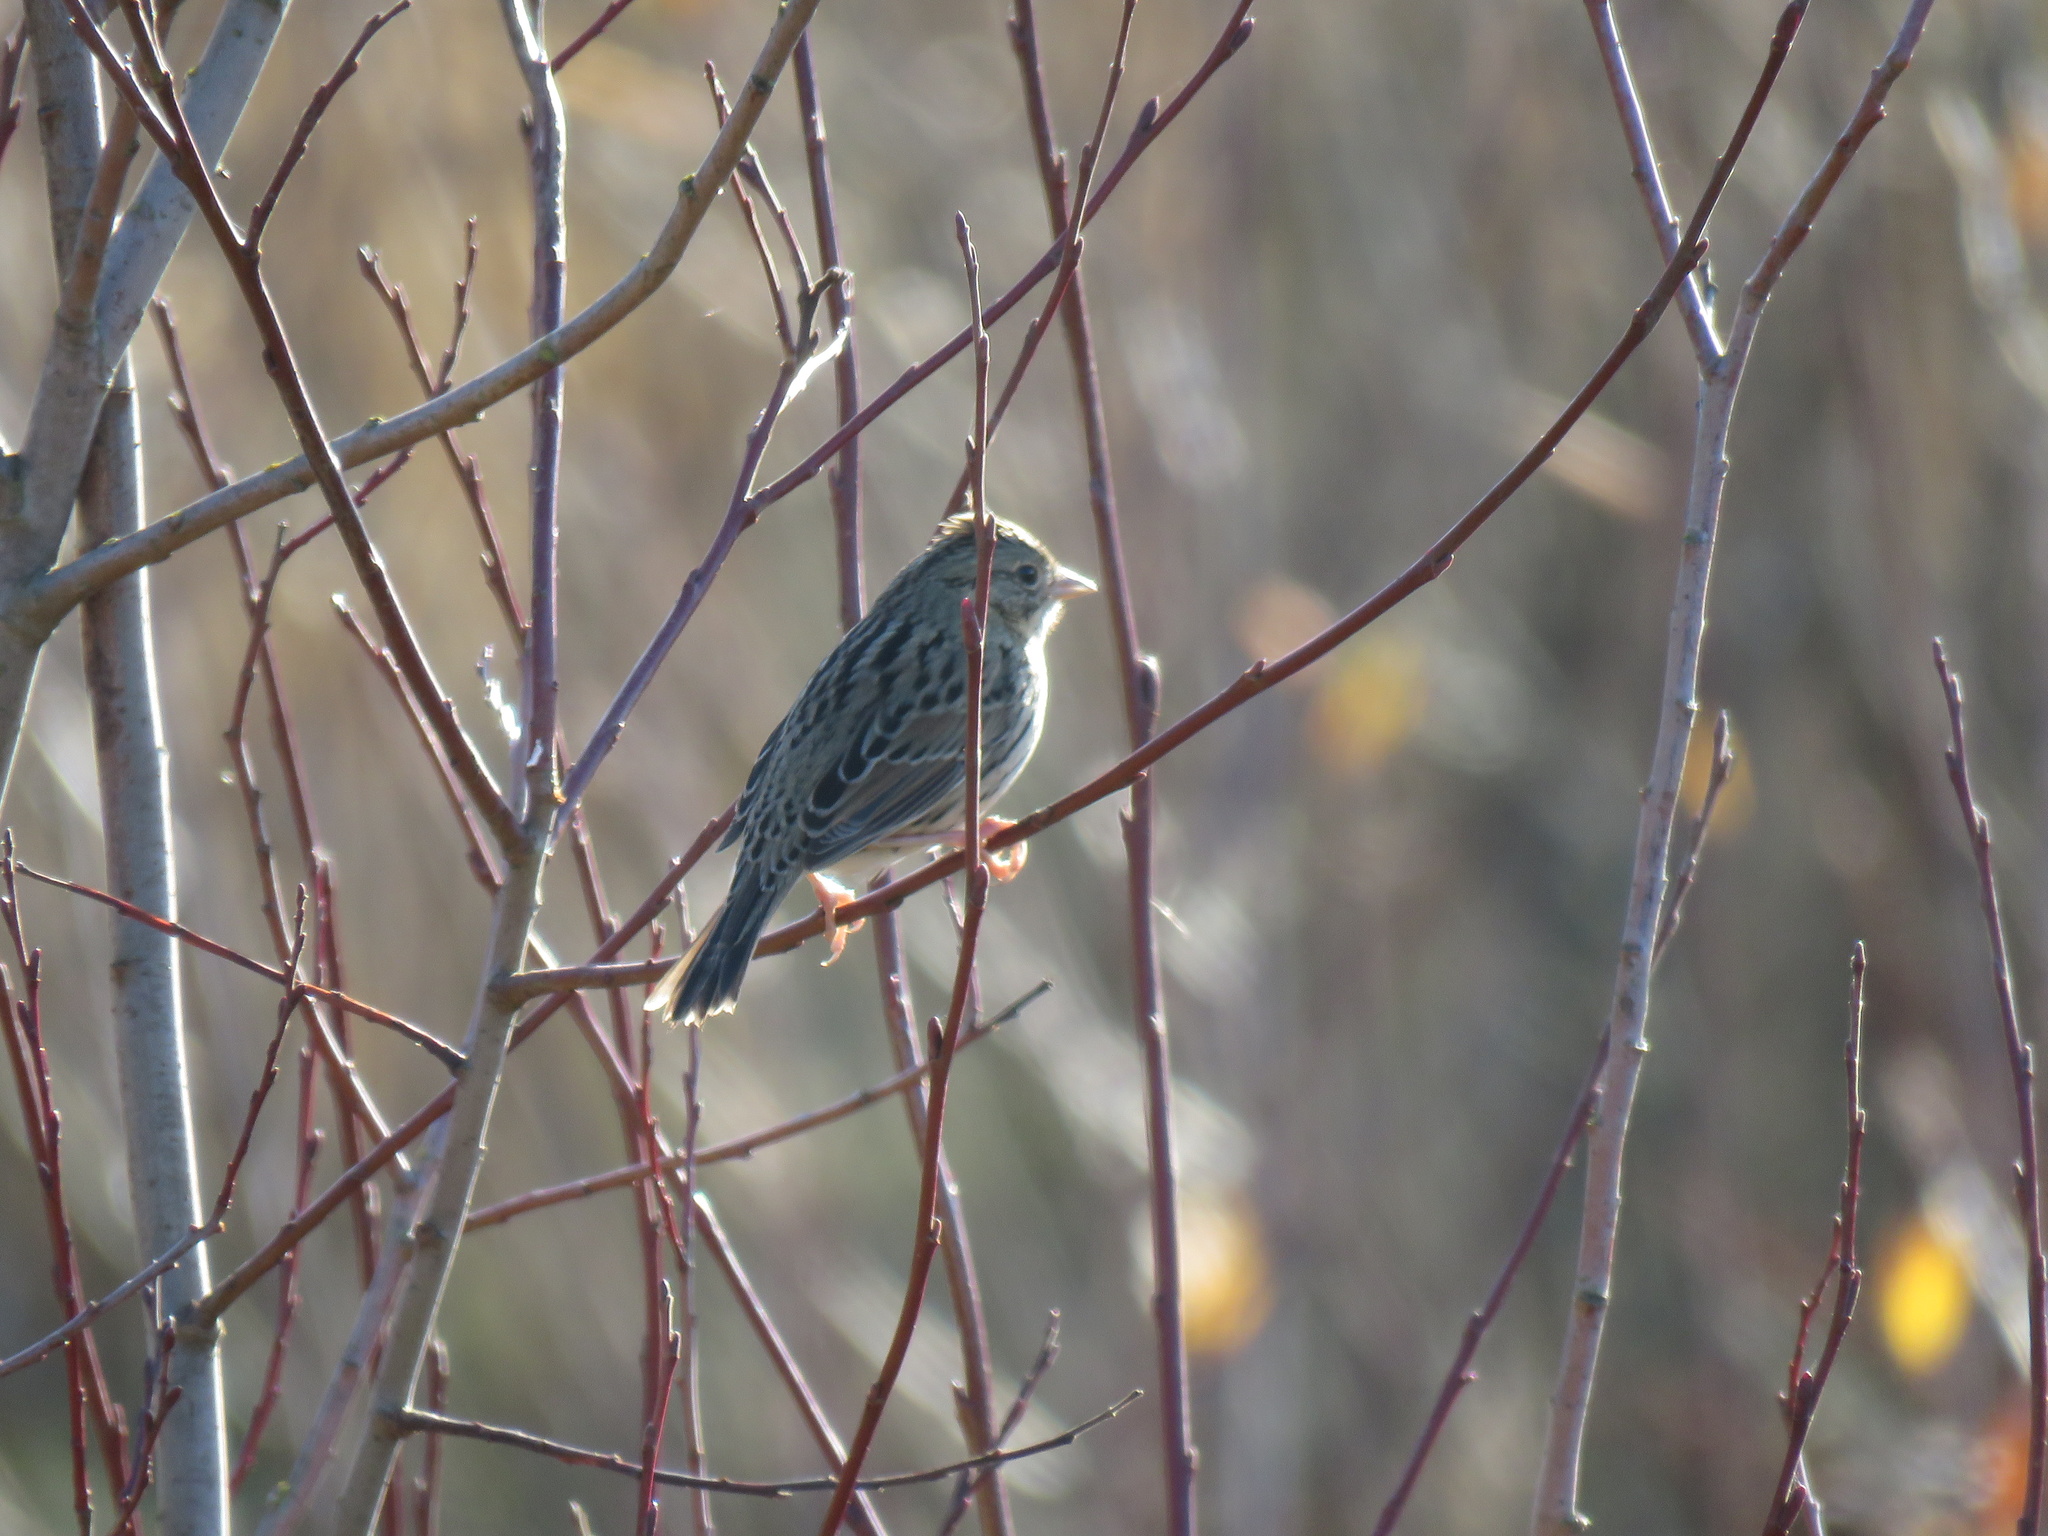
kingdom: Animalia
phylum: Chordata
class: Aves
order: Passeriformes
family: Passerellidae
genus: Melospiza
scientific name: Melospiza lincolnii
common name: Lincoln's sparrow
